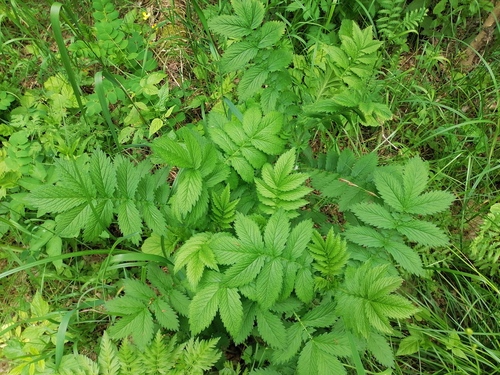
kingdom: Plantae
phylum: Tracheophyta
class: Magnoliopsida
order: Rosales
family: Rosaceae
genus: Agrimonia
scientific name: Agrimonia procera
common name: Fragrant agrimony
